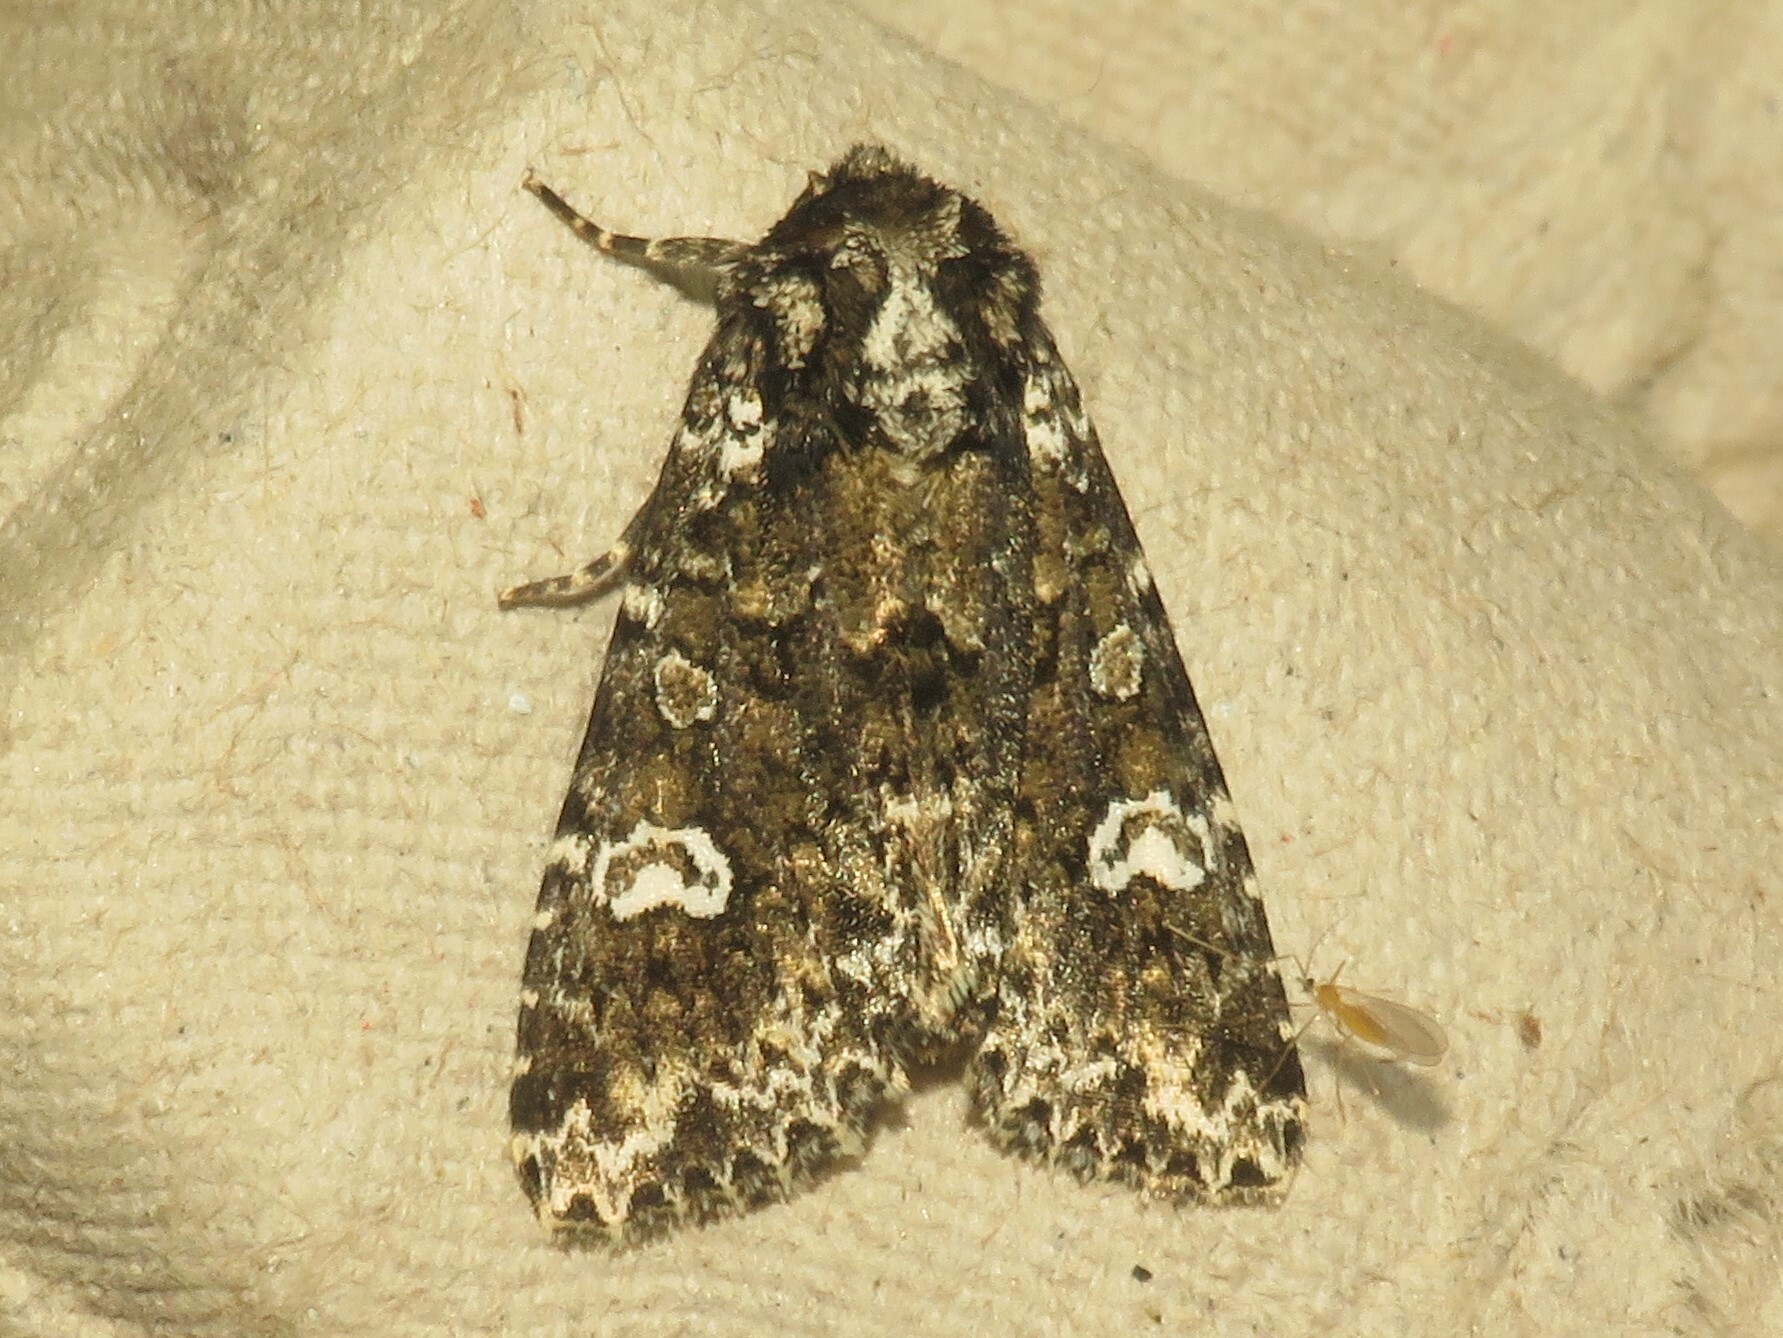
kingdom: Animalia
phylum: Arthropoda
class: Insecta
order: Lepidoptera
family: Noctuidae
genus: Melanchra
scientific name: Melanchra adjuncta
